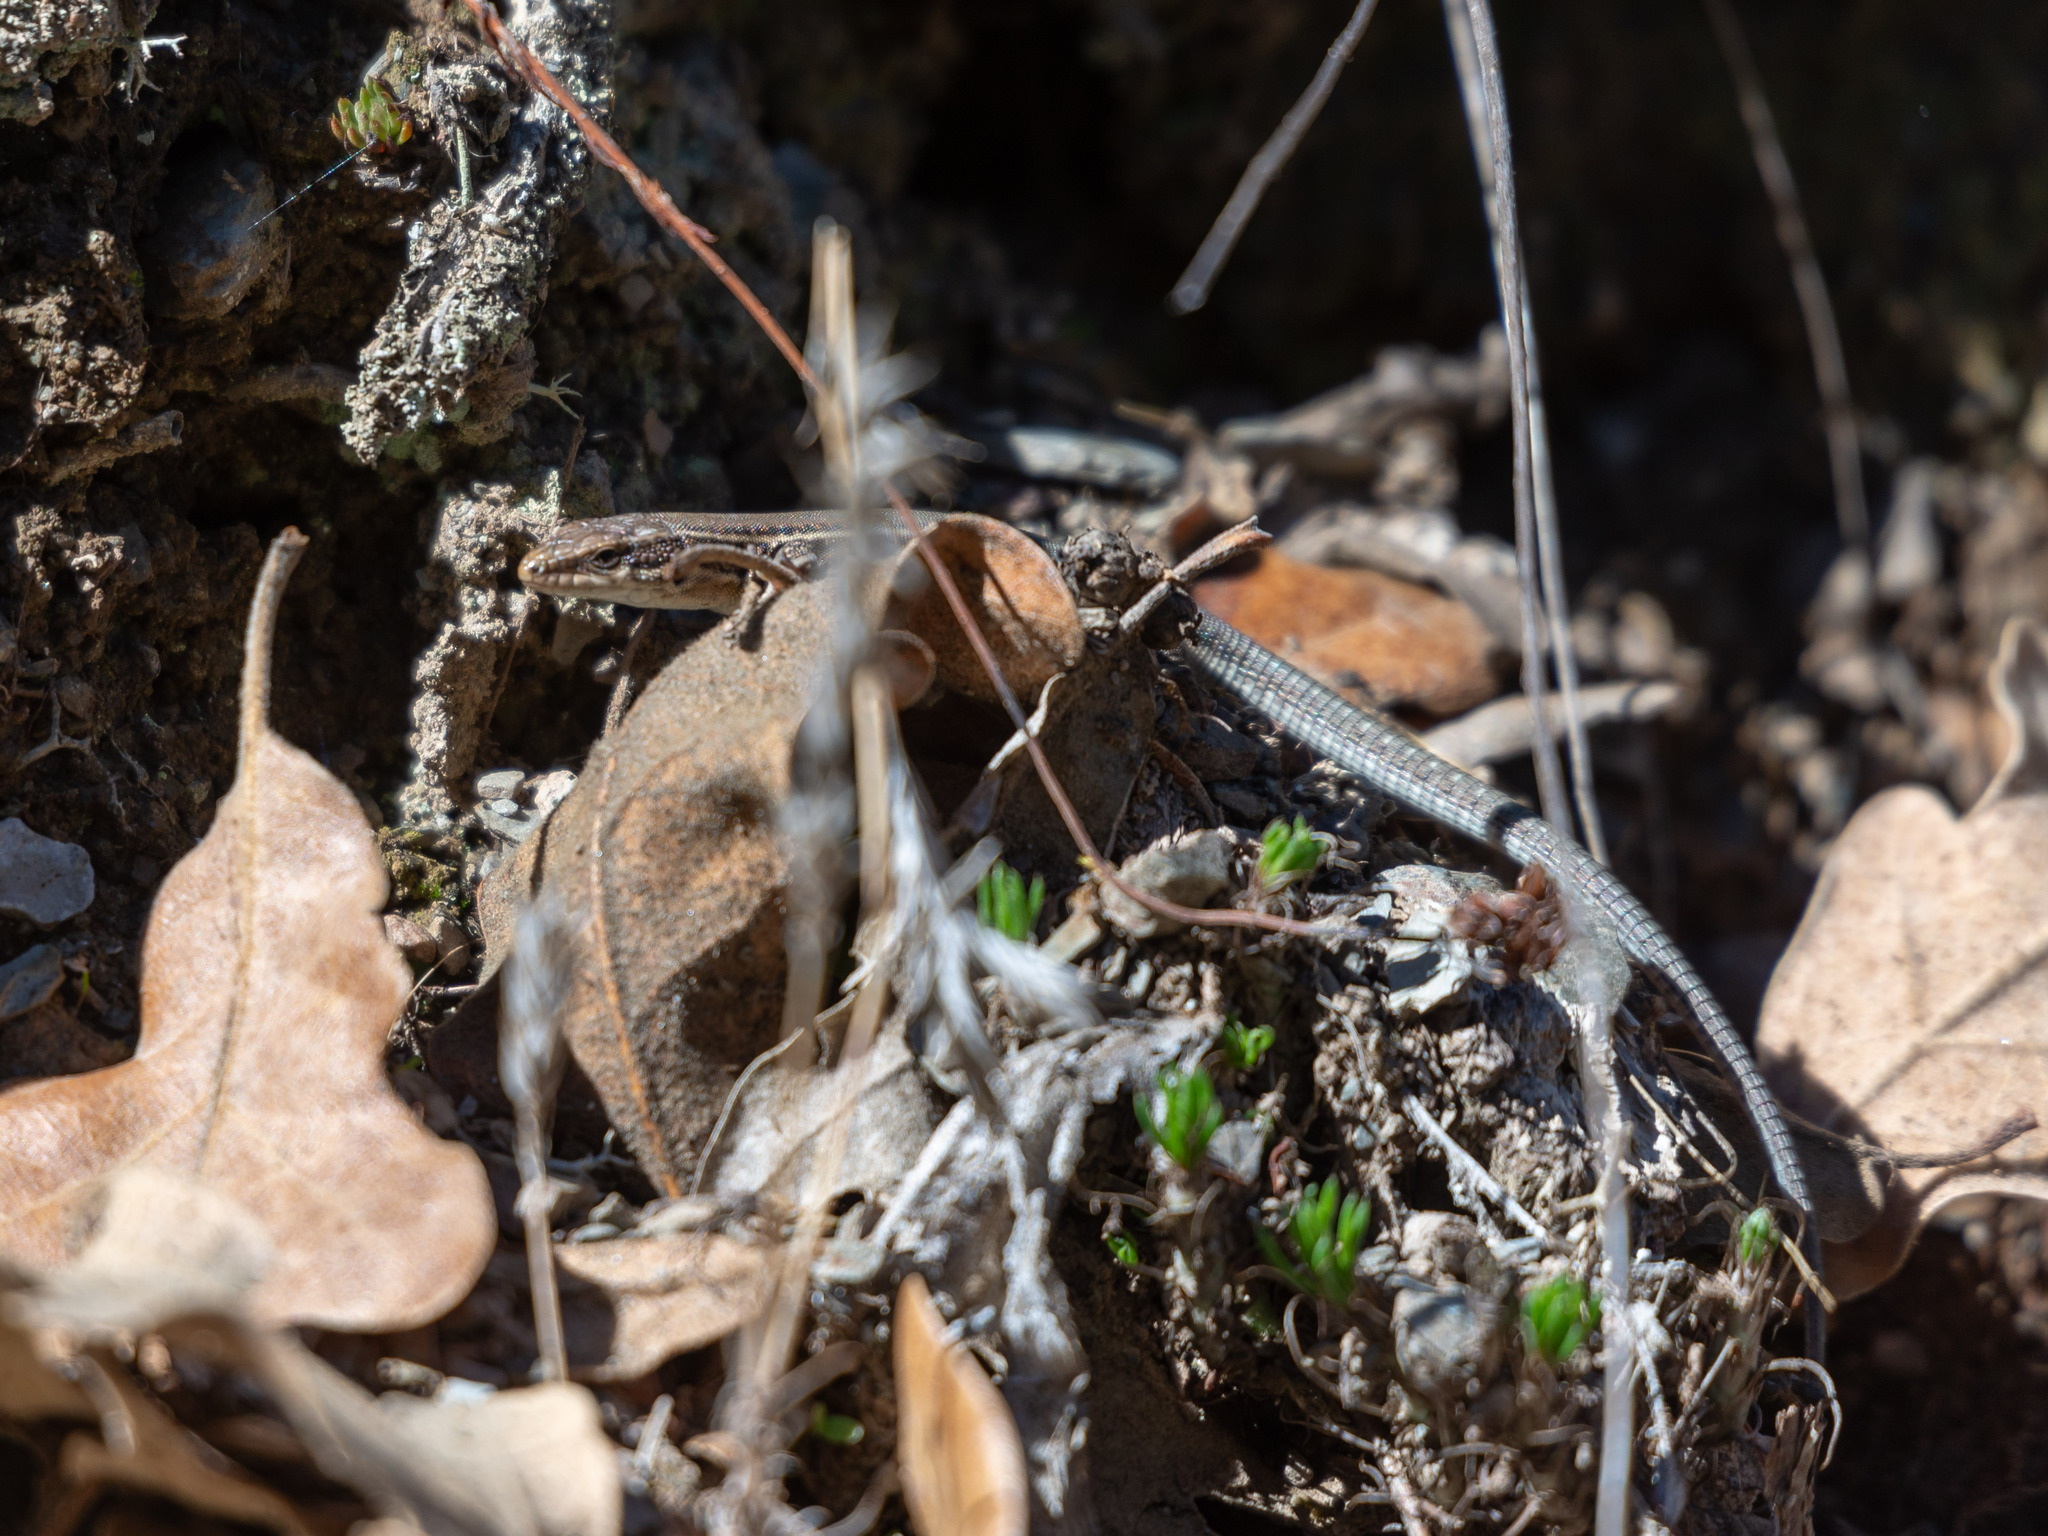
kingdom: Animalia
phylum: Chordata
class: Squamata
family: Lacertidae
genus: Podarcis
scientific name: Podarcis liolepis
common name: Catalonian wall lizard
